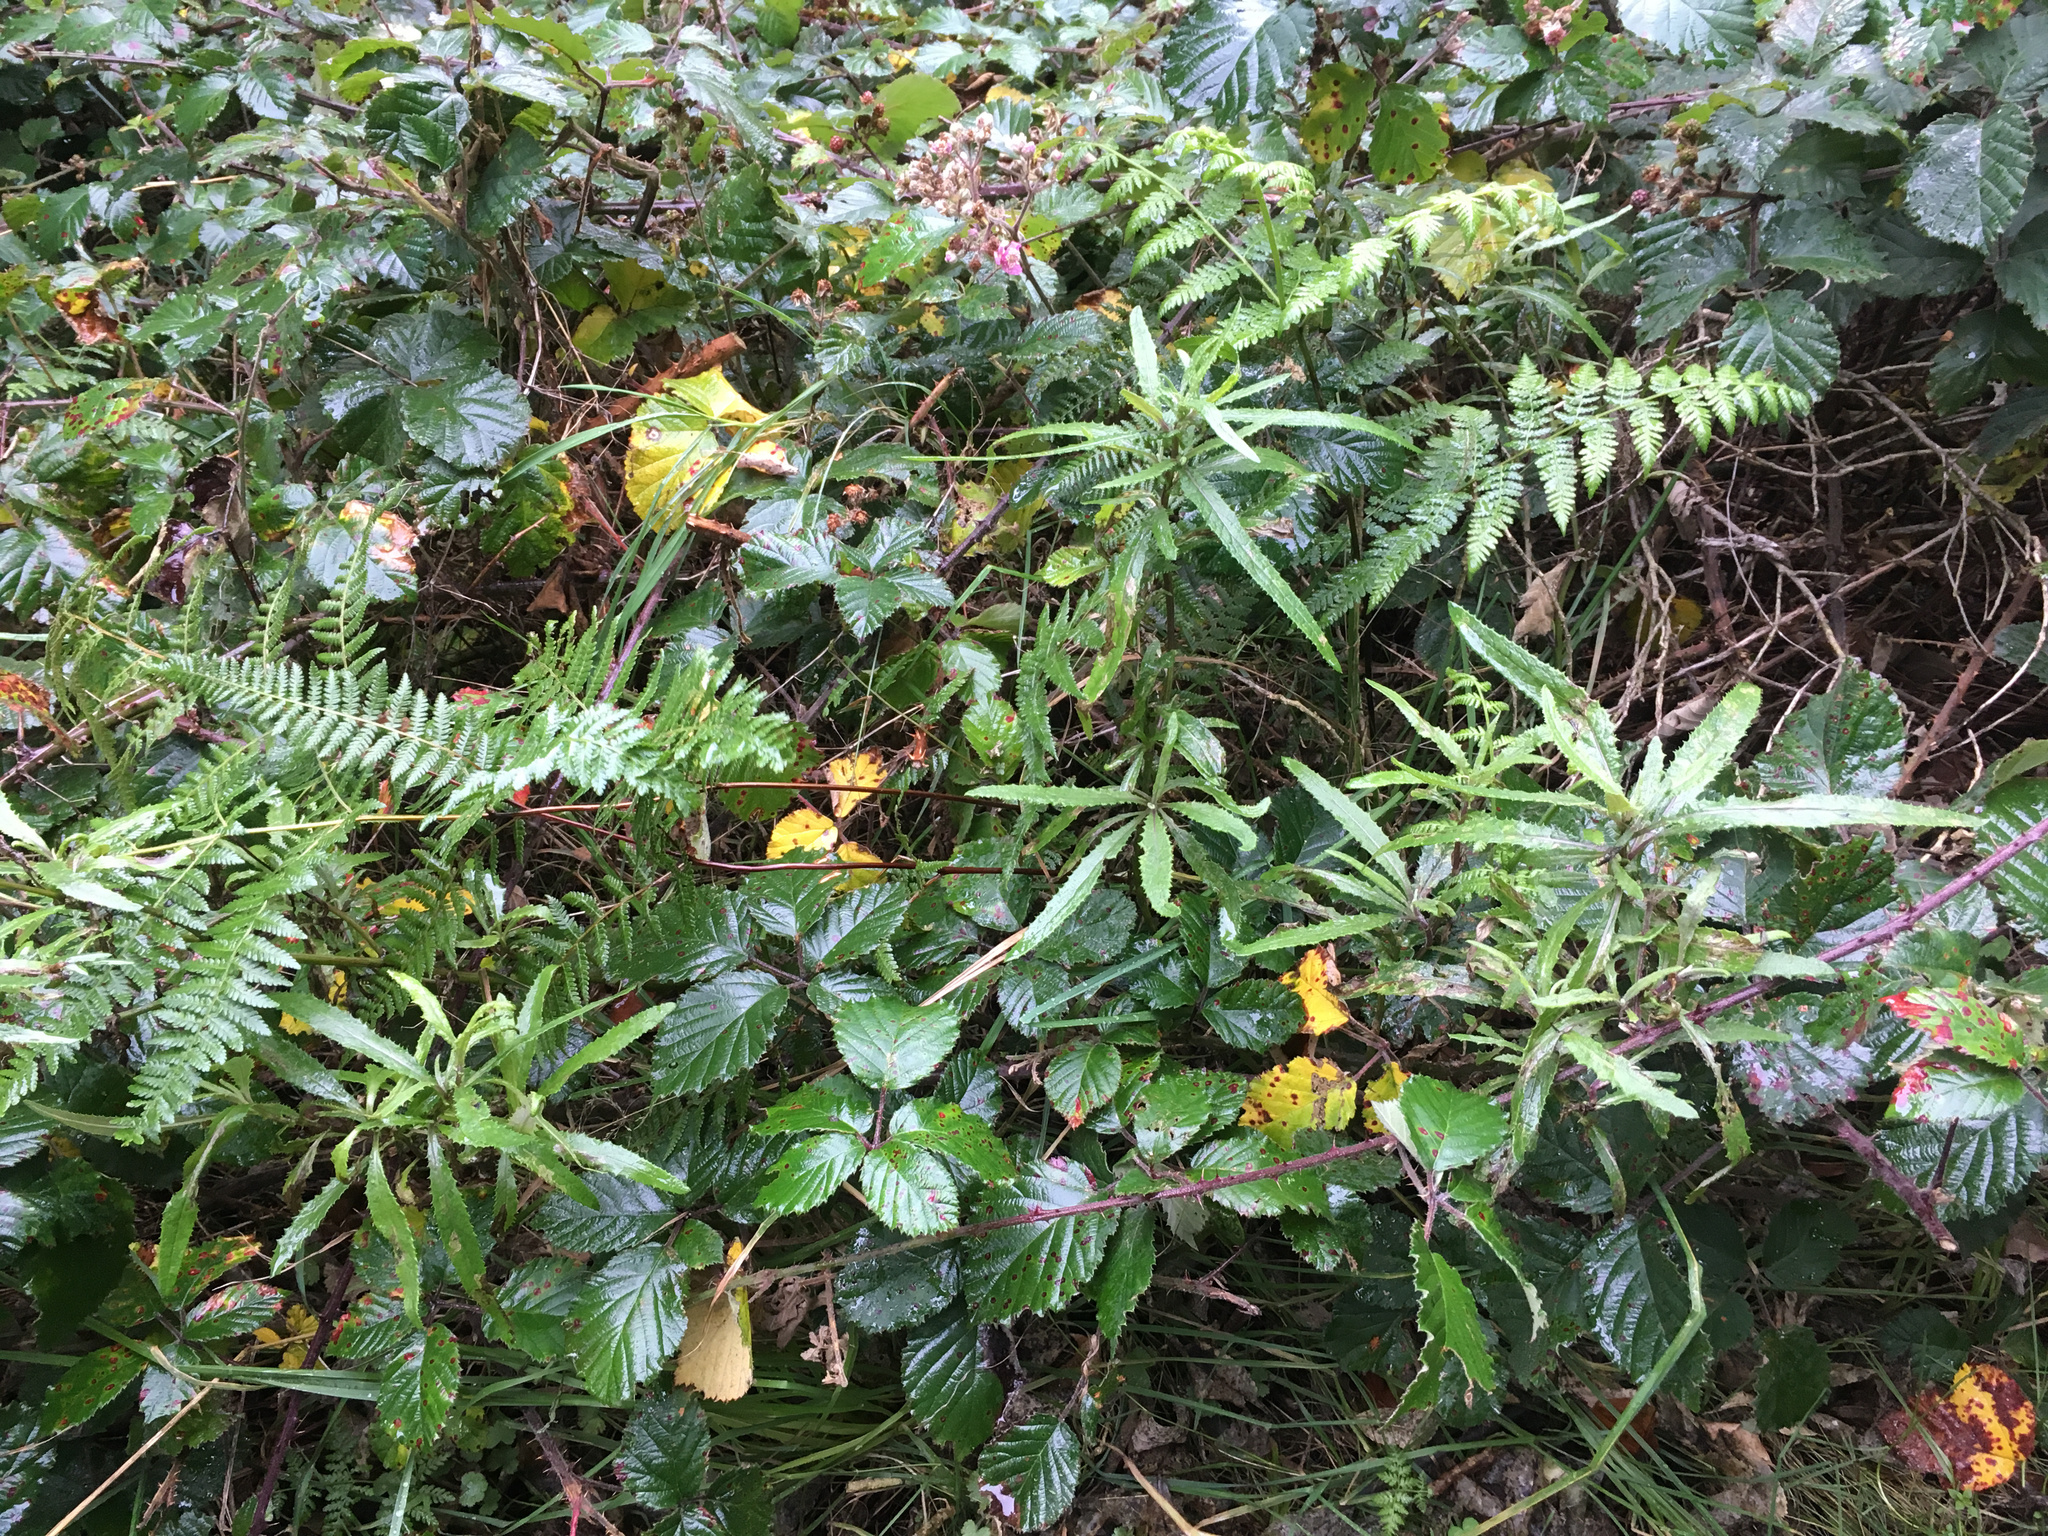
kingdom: Plantae
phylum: Tracheophyta
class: Magnoliopsida
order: Asterales
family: Asteraceae
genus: Senecio
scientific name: Senecio minimus
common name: Toothed fireweed
